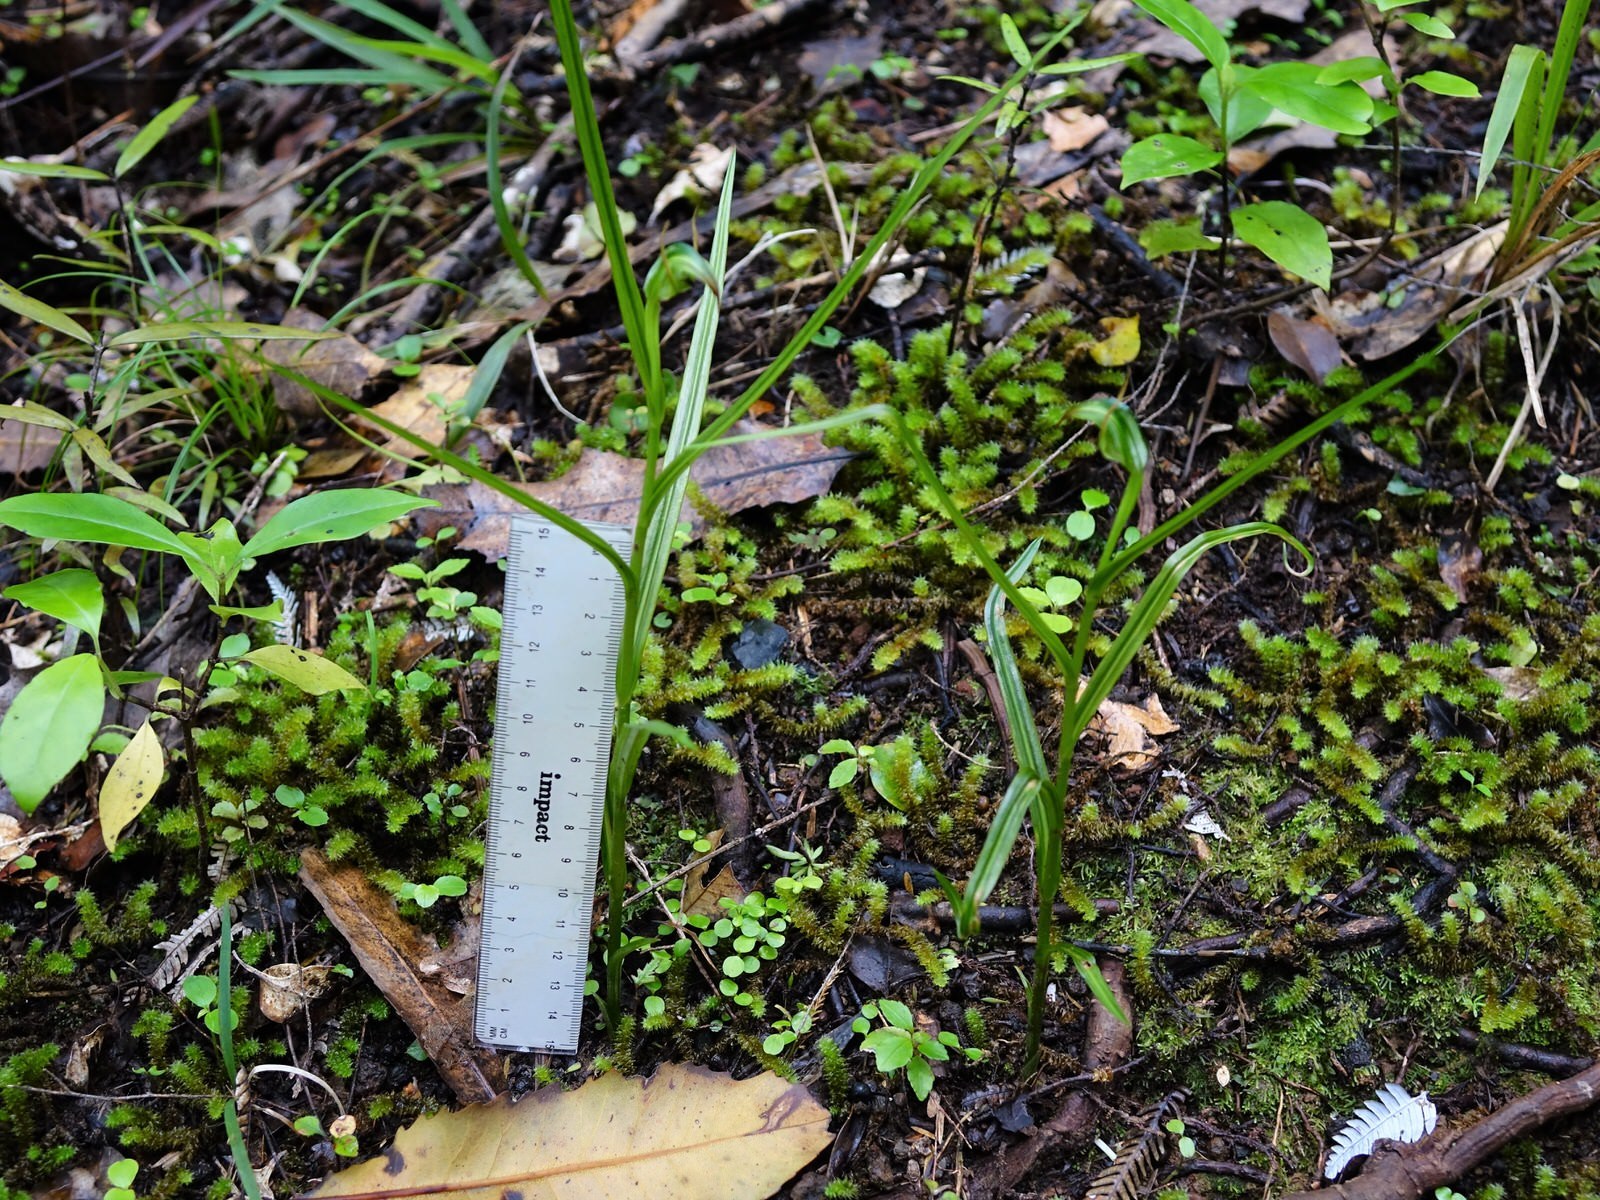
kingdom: Plantae
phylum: Tracheophyta
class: Liliopsida
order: Asparagales
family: Orchidaceae
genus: Pterostylis
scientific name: Pterostylis graminea
